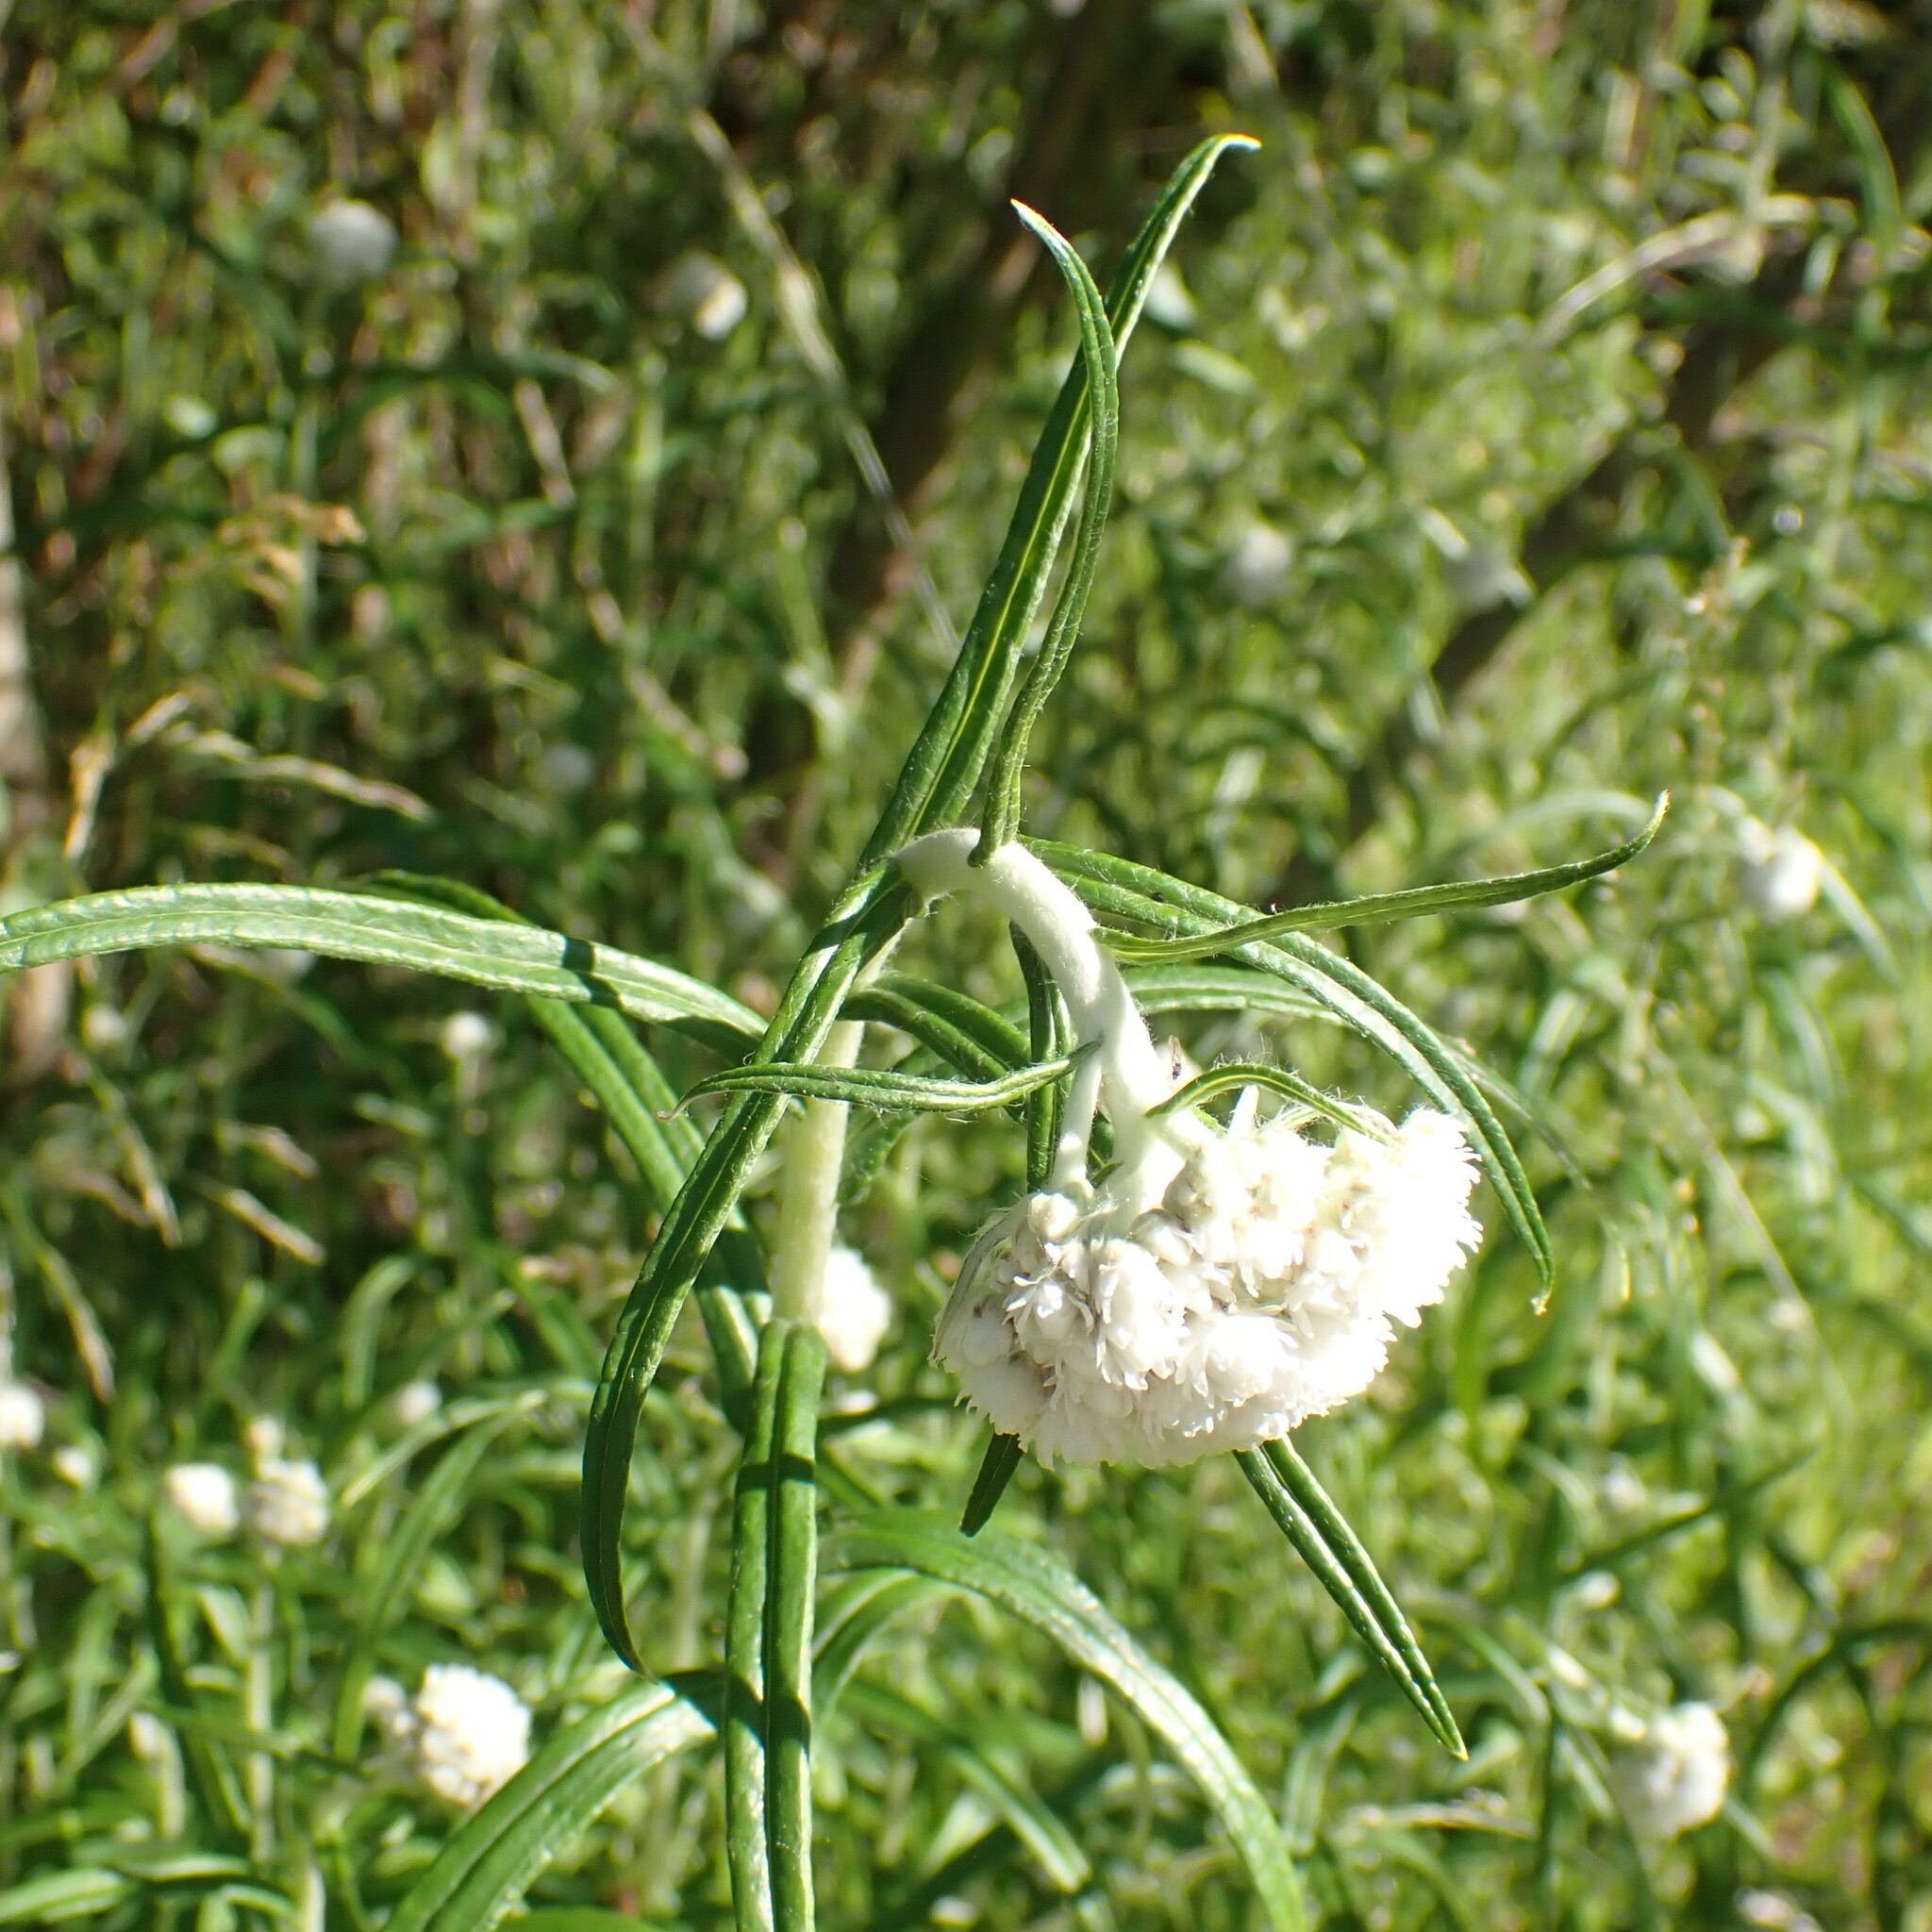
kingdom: Plantae
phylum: Tracheophyta
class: Magnoliopsida
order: Asterales
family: Asteraceae
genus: Anaphalis
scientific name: Anaphalis margaritacea
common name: Pearly everlasting
